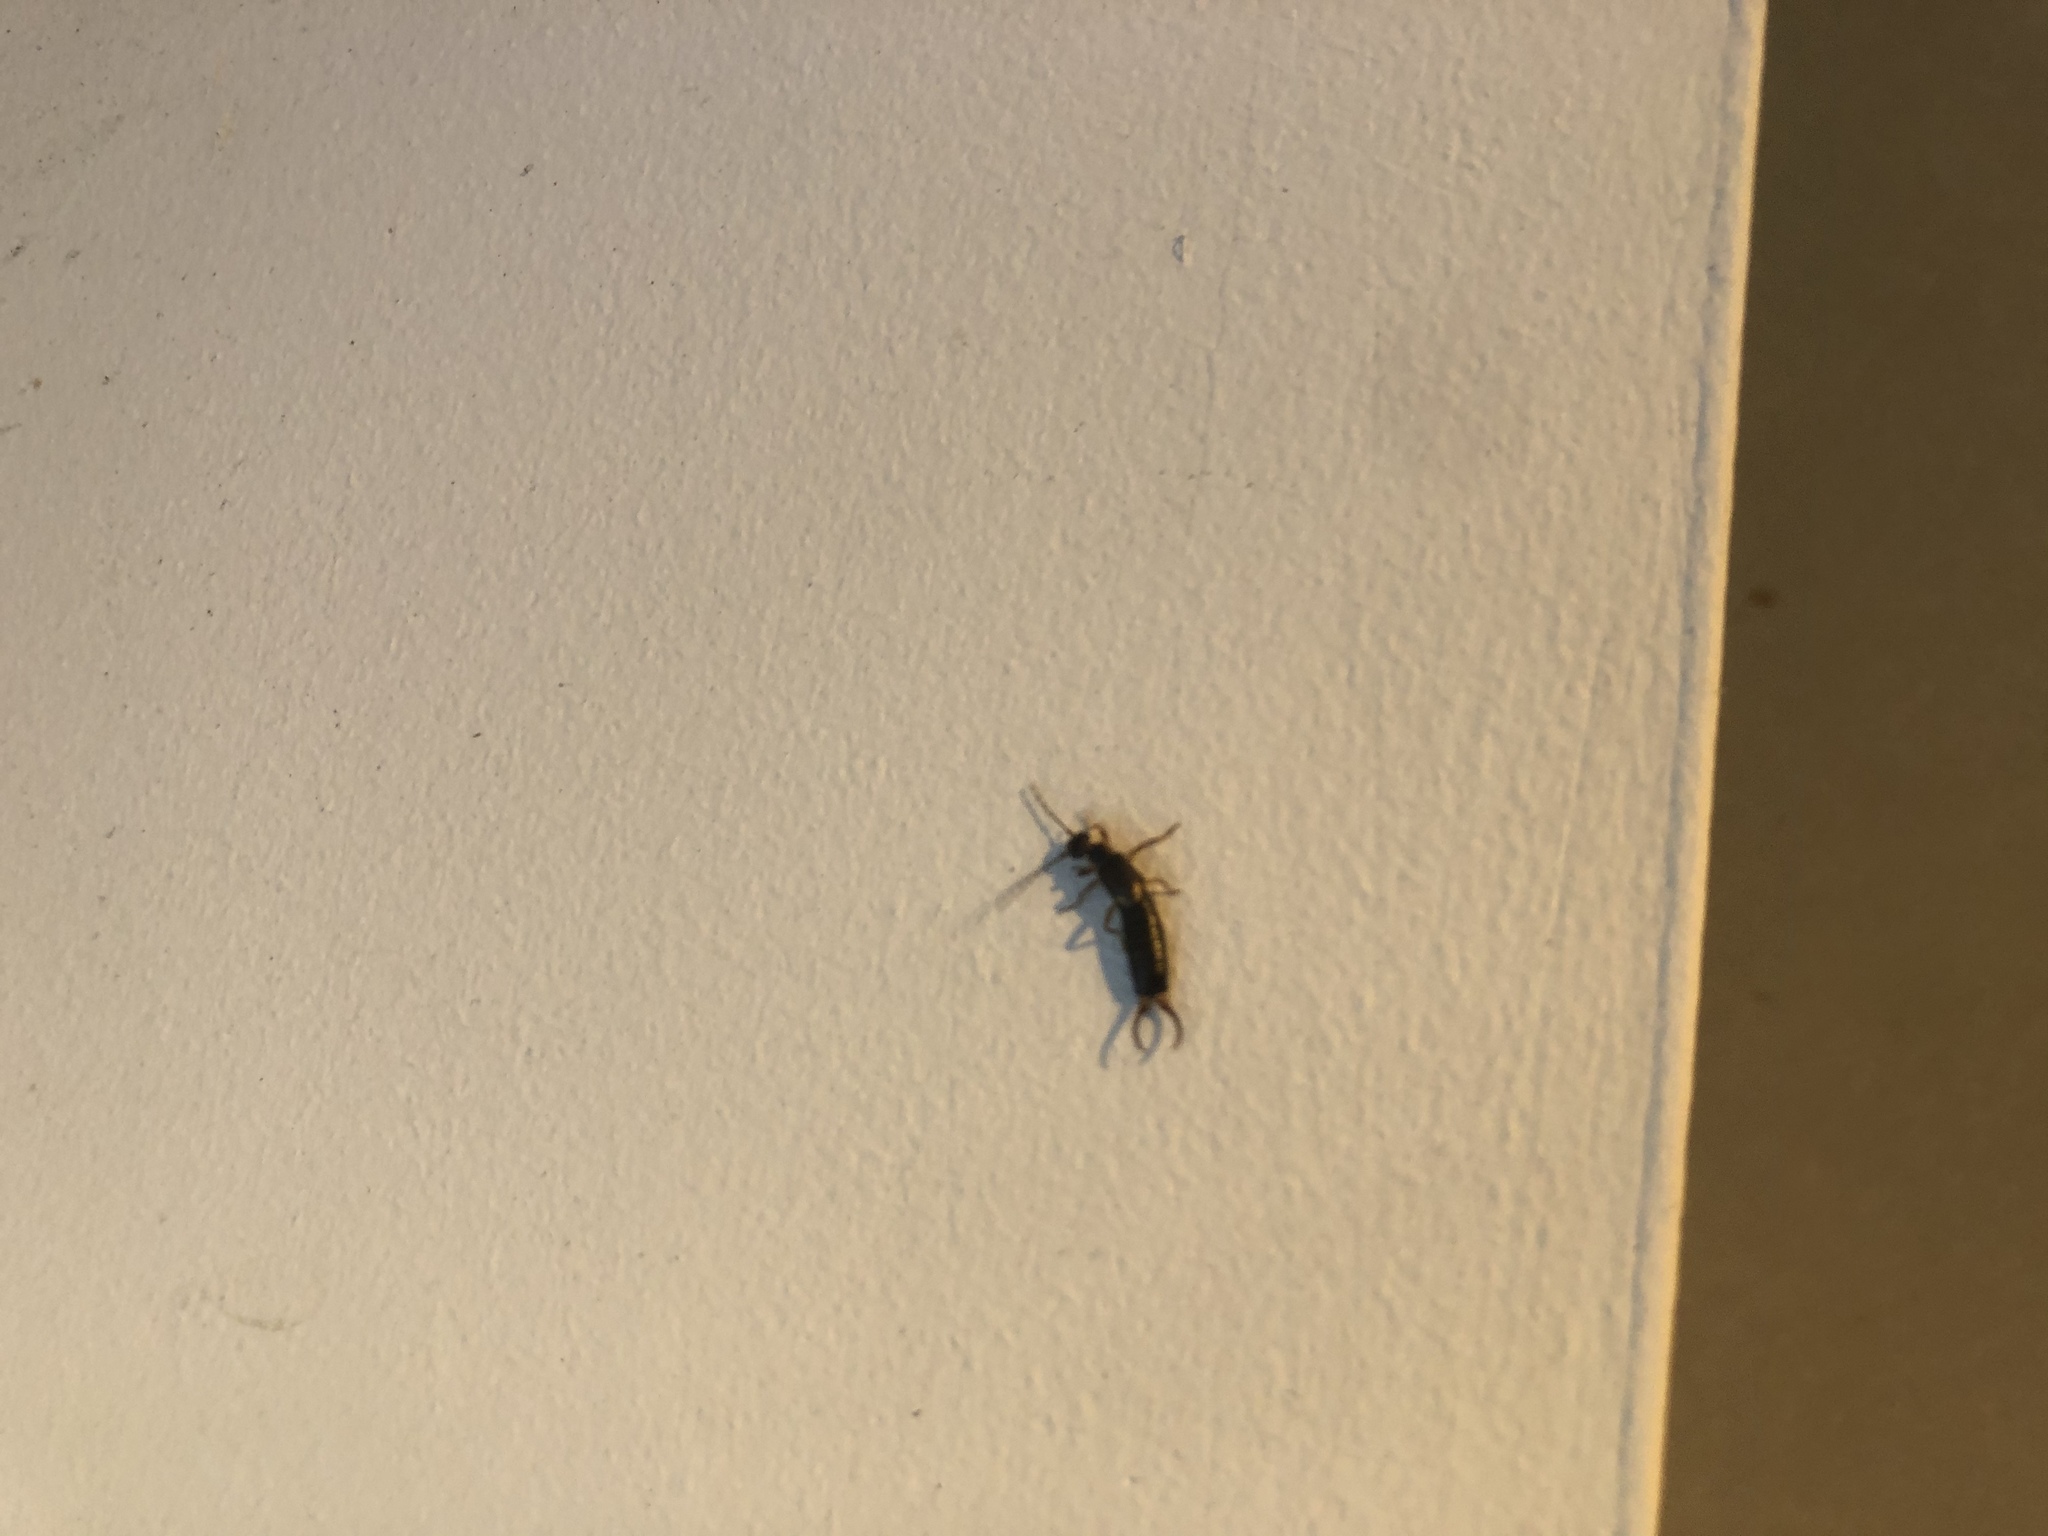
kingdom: Animalia
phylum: Arthropoda
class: Insecta
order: Dermaptera
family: Forficulidae
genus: Forficula
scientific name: Forficula
